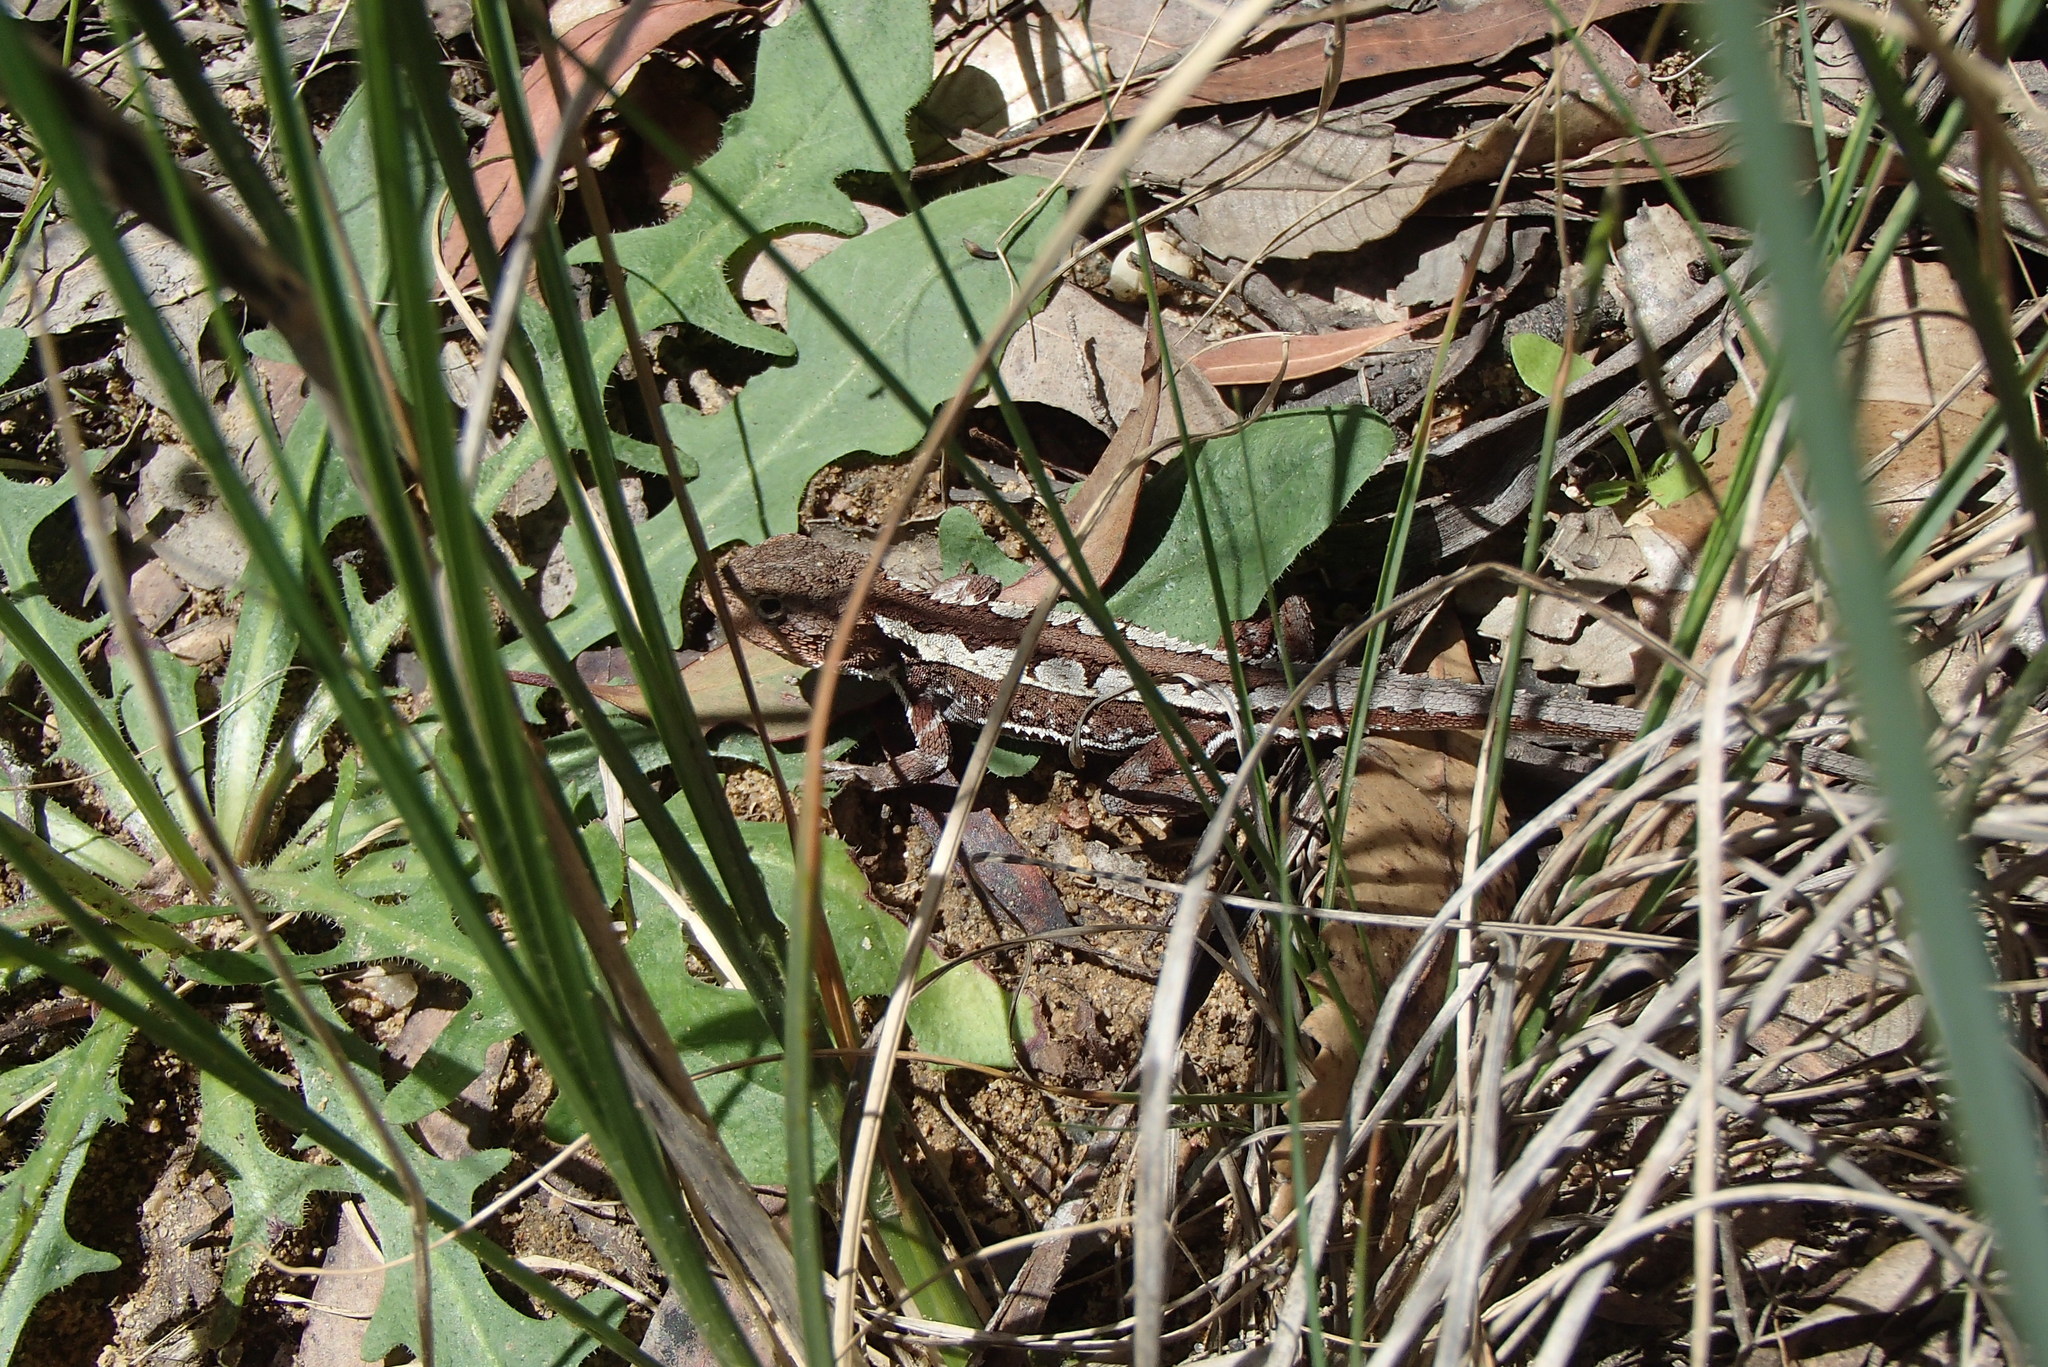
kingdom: Animalia
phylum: Chordata
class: Squamata
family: Agamidae
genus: Rankinia
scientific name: Rankinia diemensis
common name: Mountain dragon
